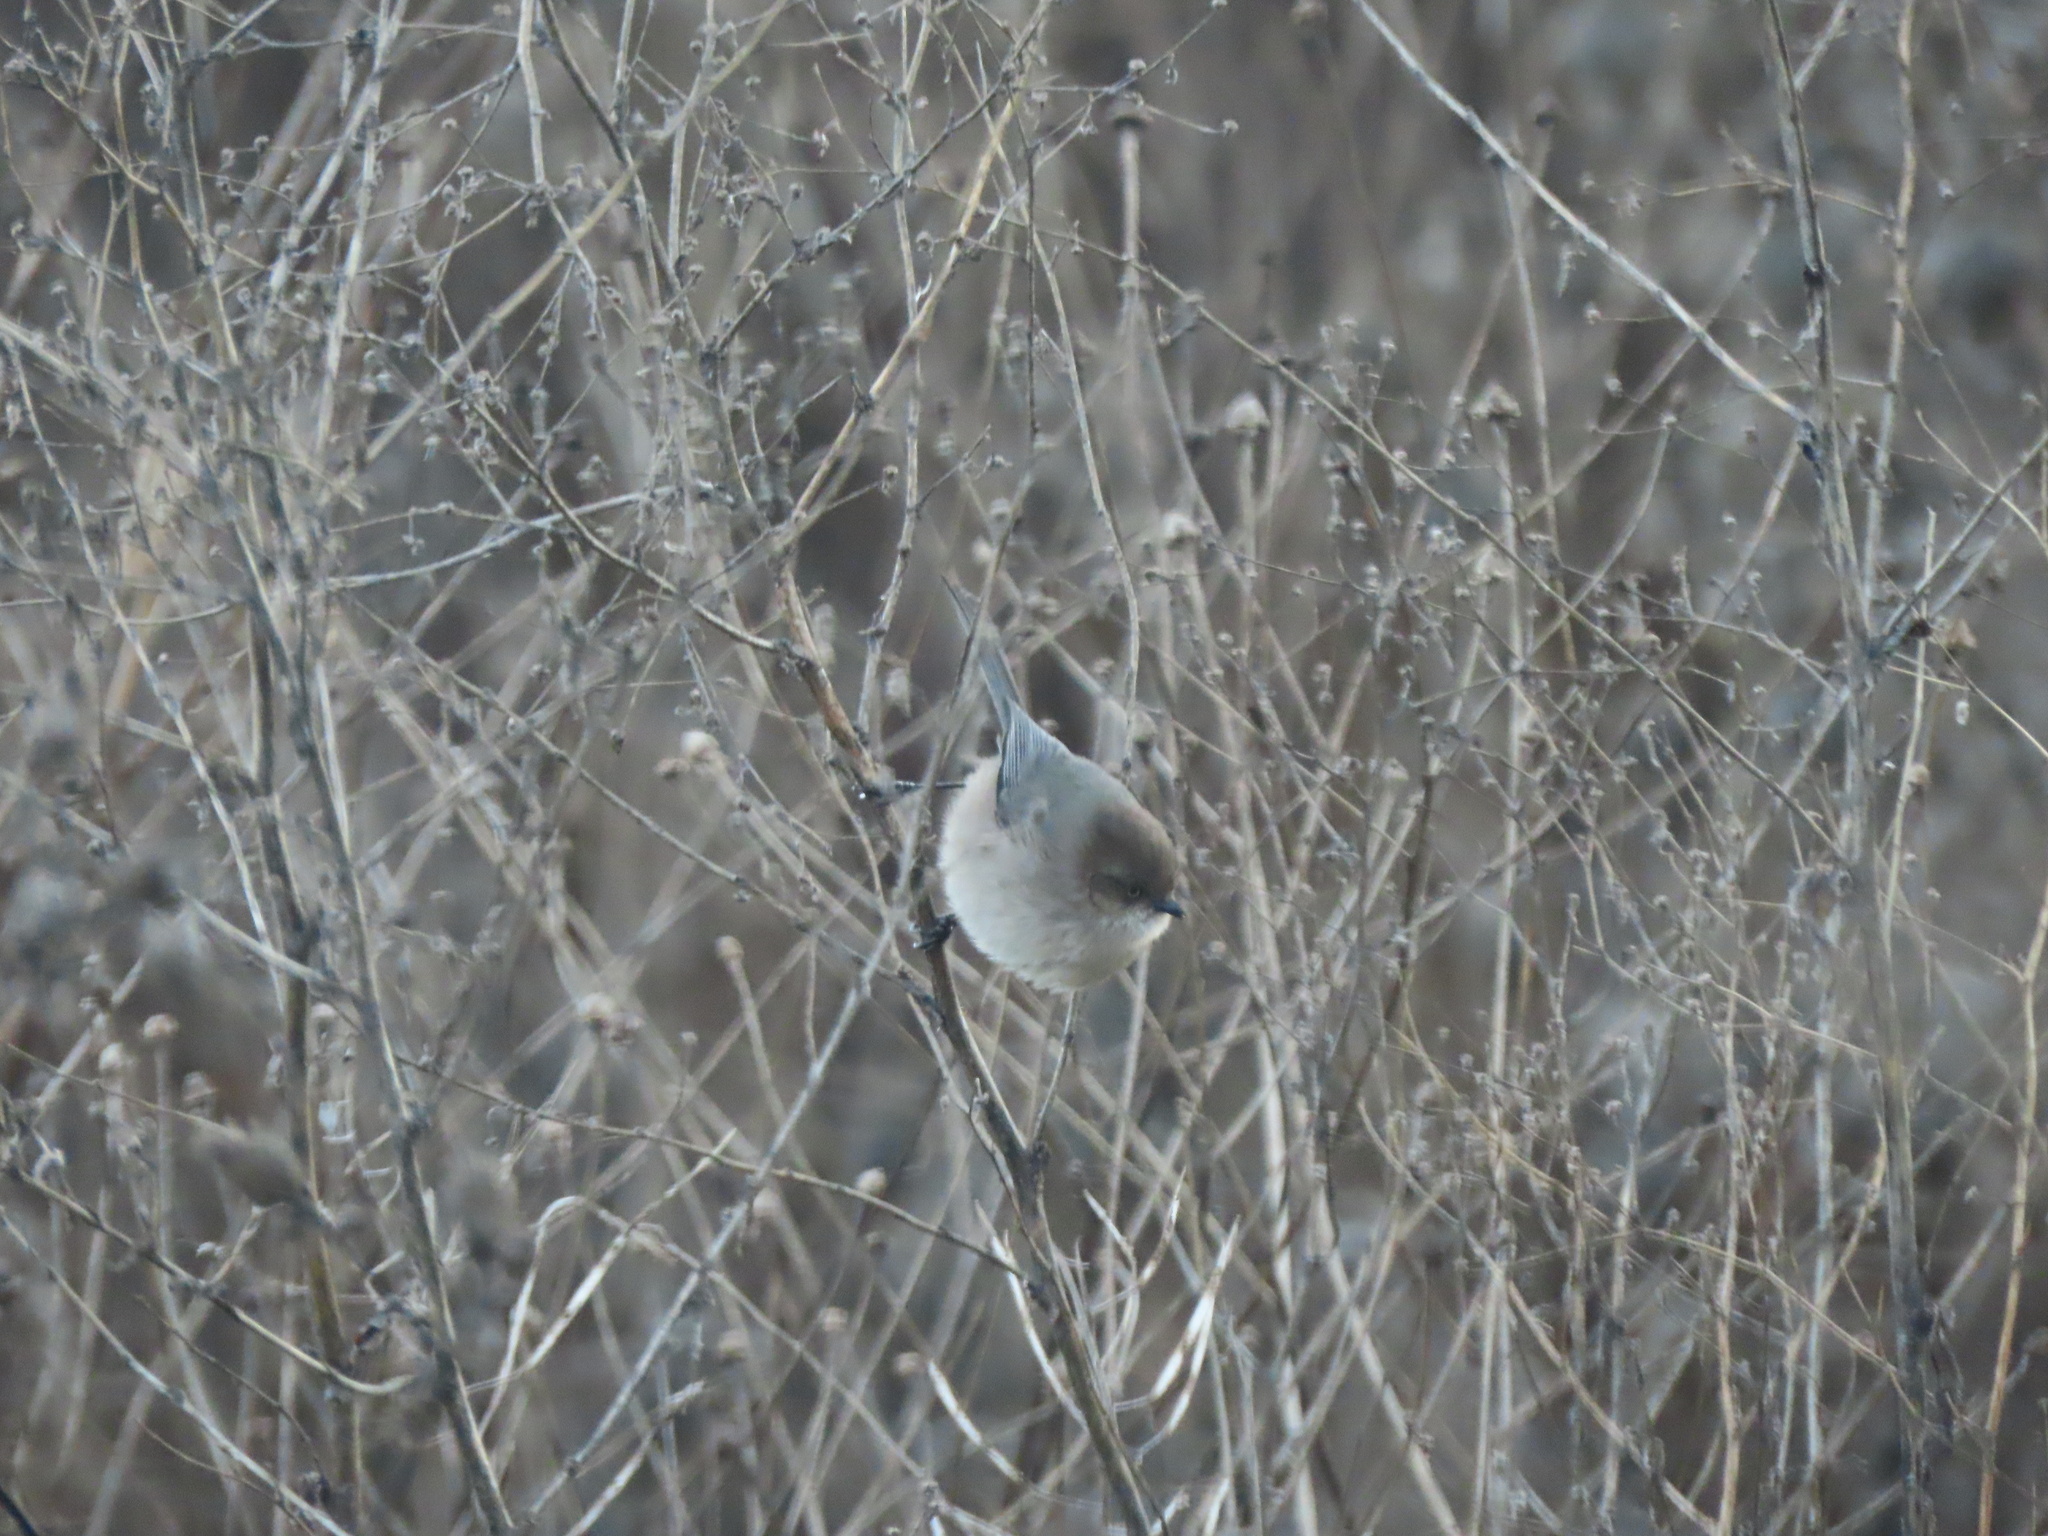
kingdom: Animalia
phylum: Chordata
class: Aves
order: Passeriformes
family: Aegithalidae
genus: Psaltriparus
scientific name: Psaltriparus minimus
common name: American bushtit
